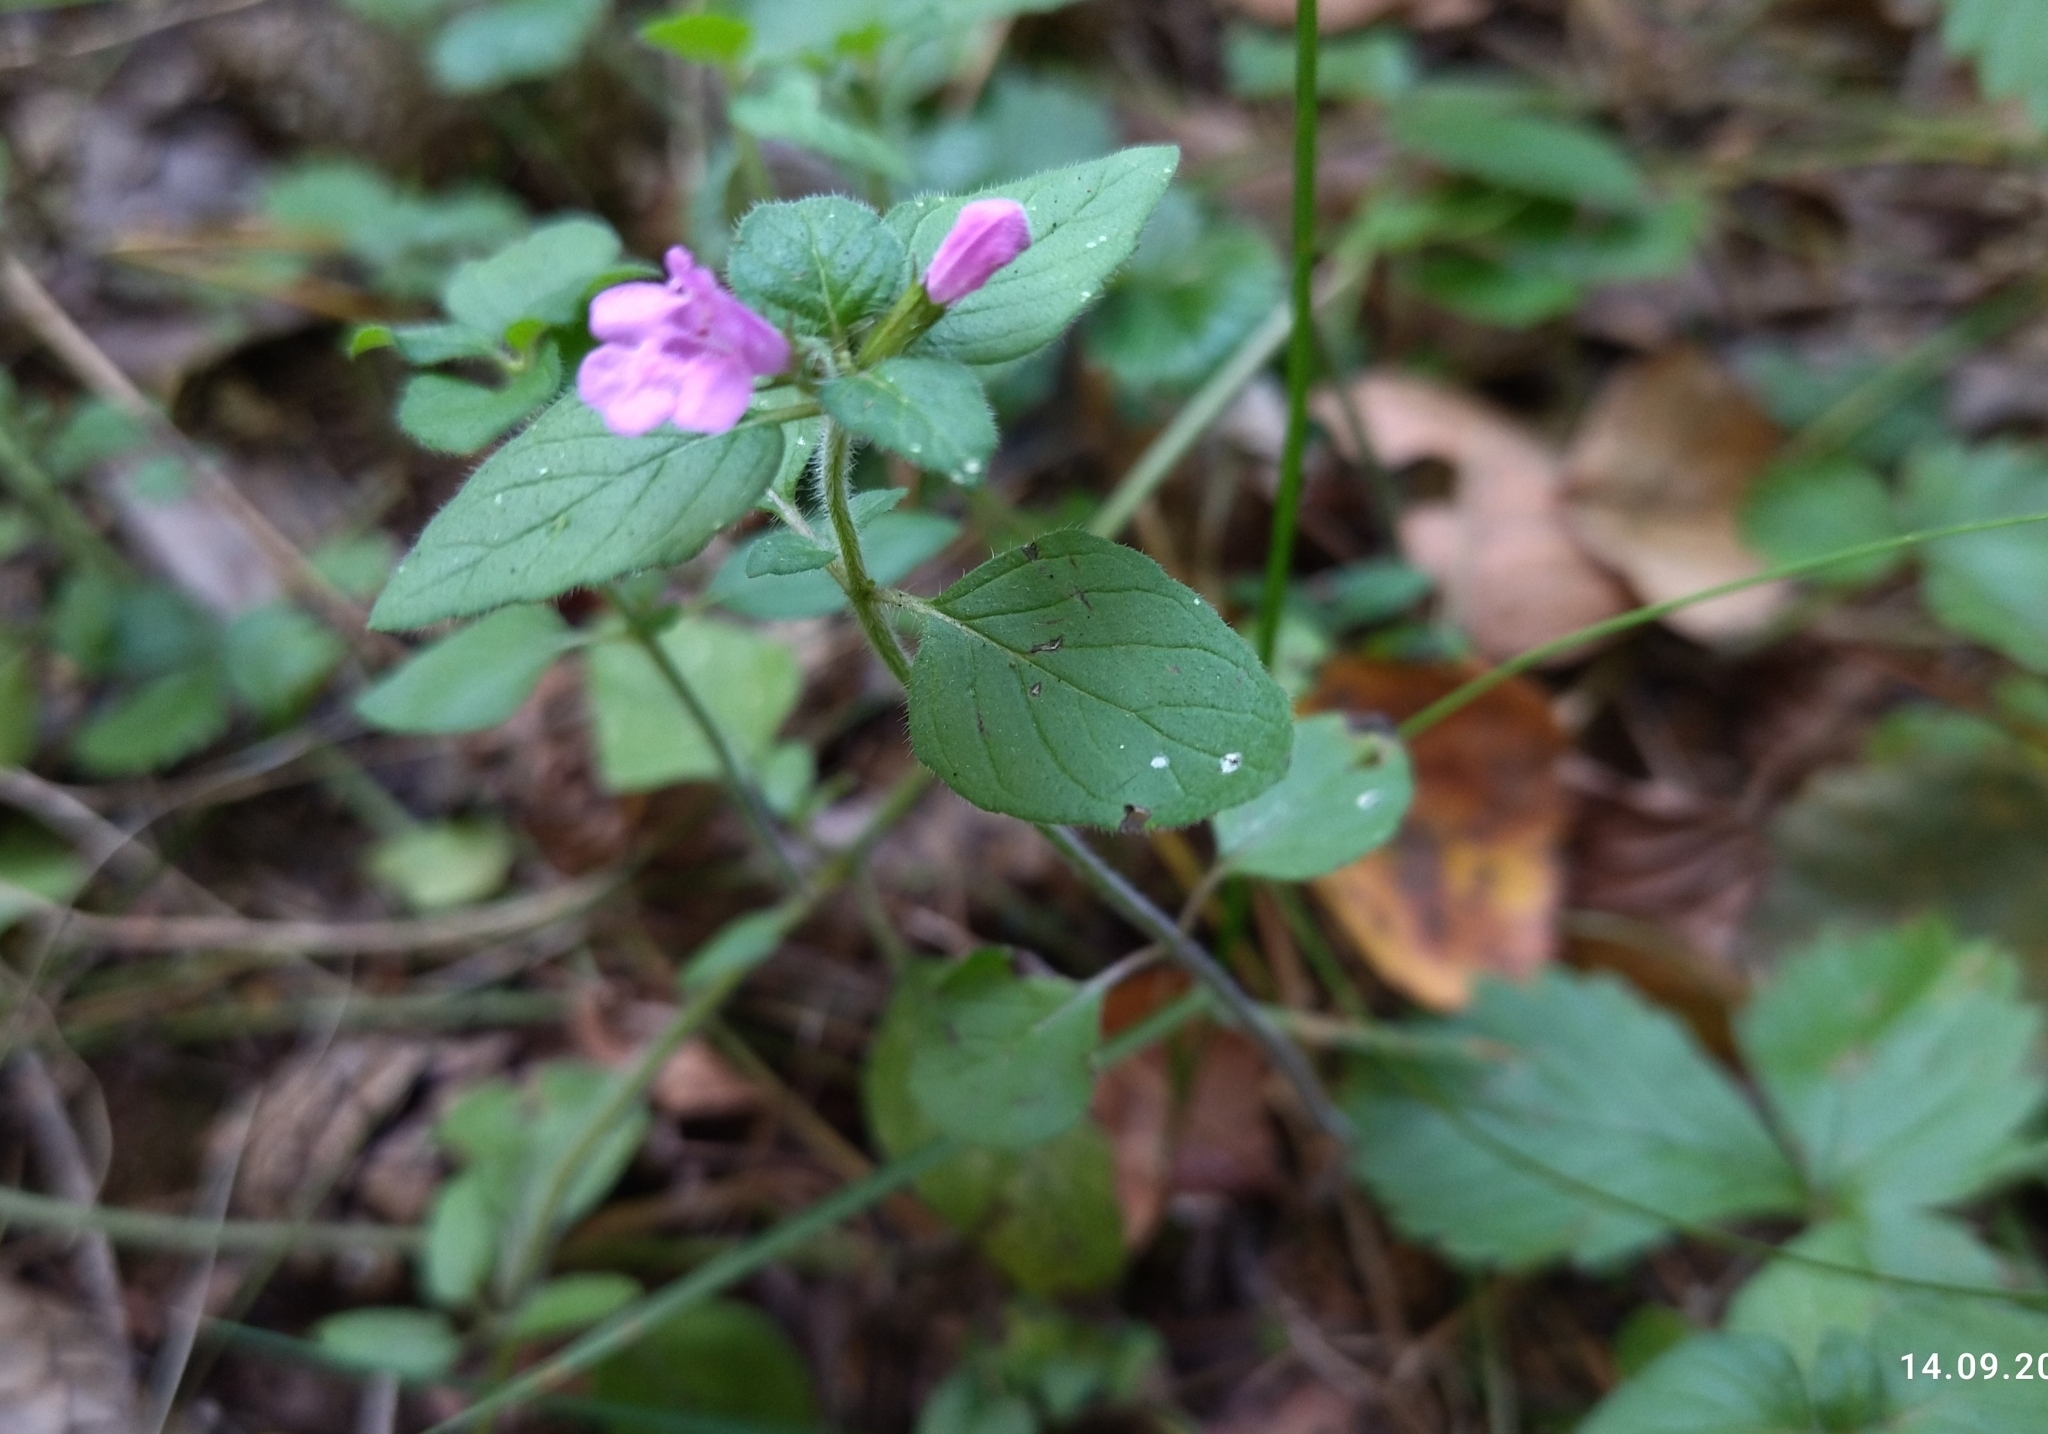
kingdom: Plantae
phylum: Tracheophyta
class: Magnoliopsida
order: Lamiales
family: Lamiaceae
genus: Clinopodium
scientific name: Clinopodium vulgare
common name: Wild basil
